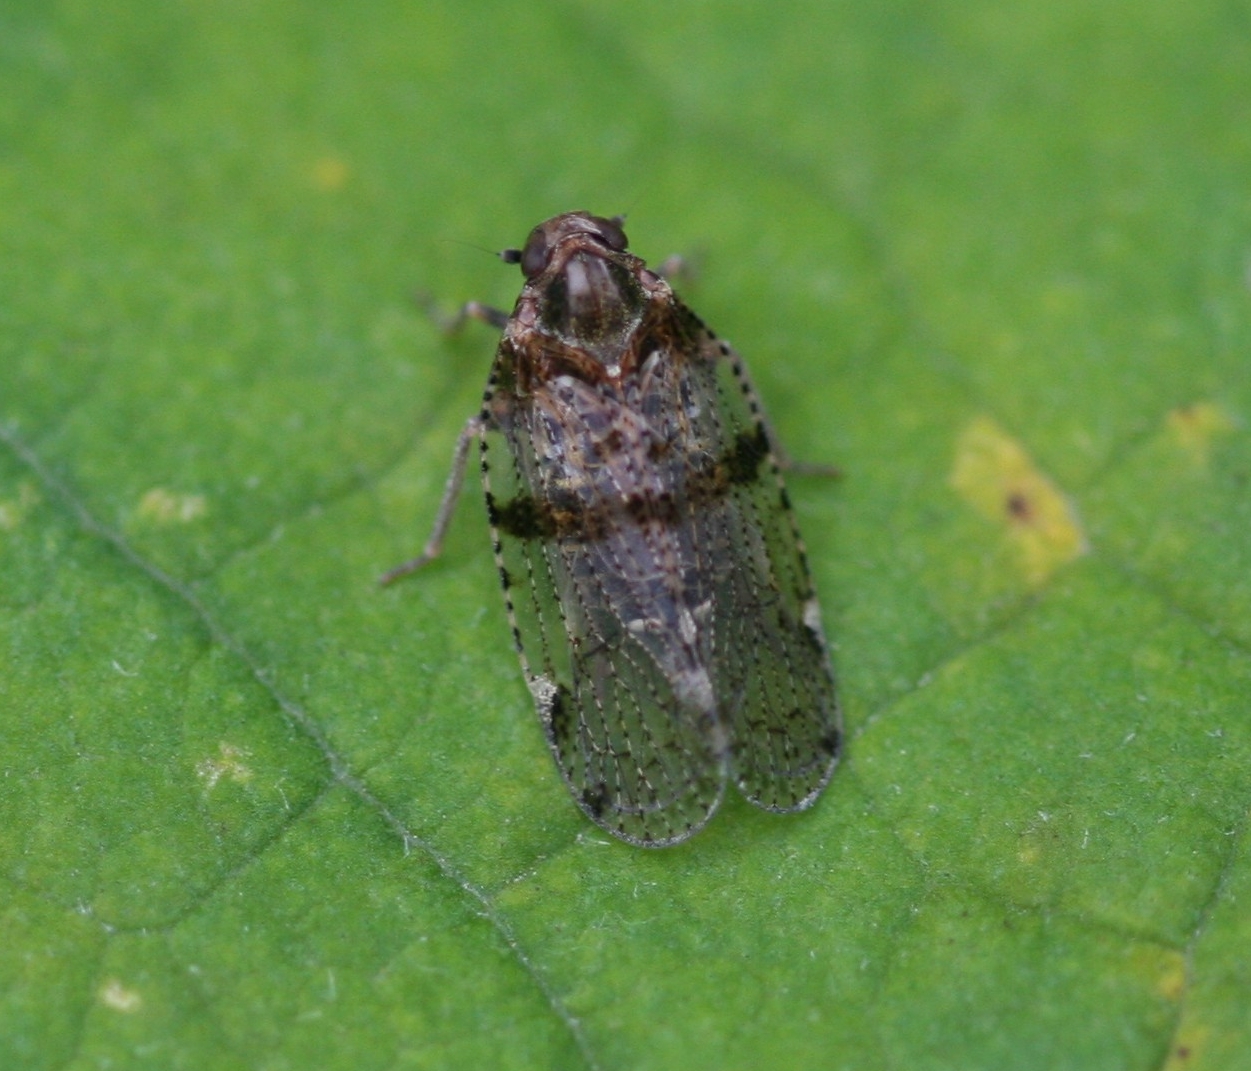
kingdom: Animalia
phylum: Arthropoda
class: Insecta
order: Hemiptera
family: Cixiidae
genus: Cixius
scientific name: Cixius nervosus
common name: Common lacehopper
